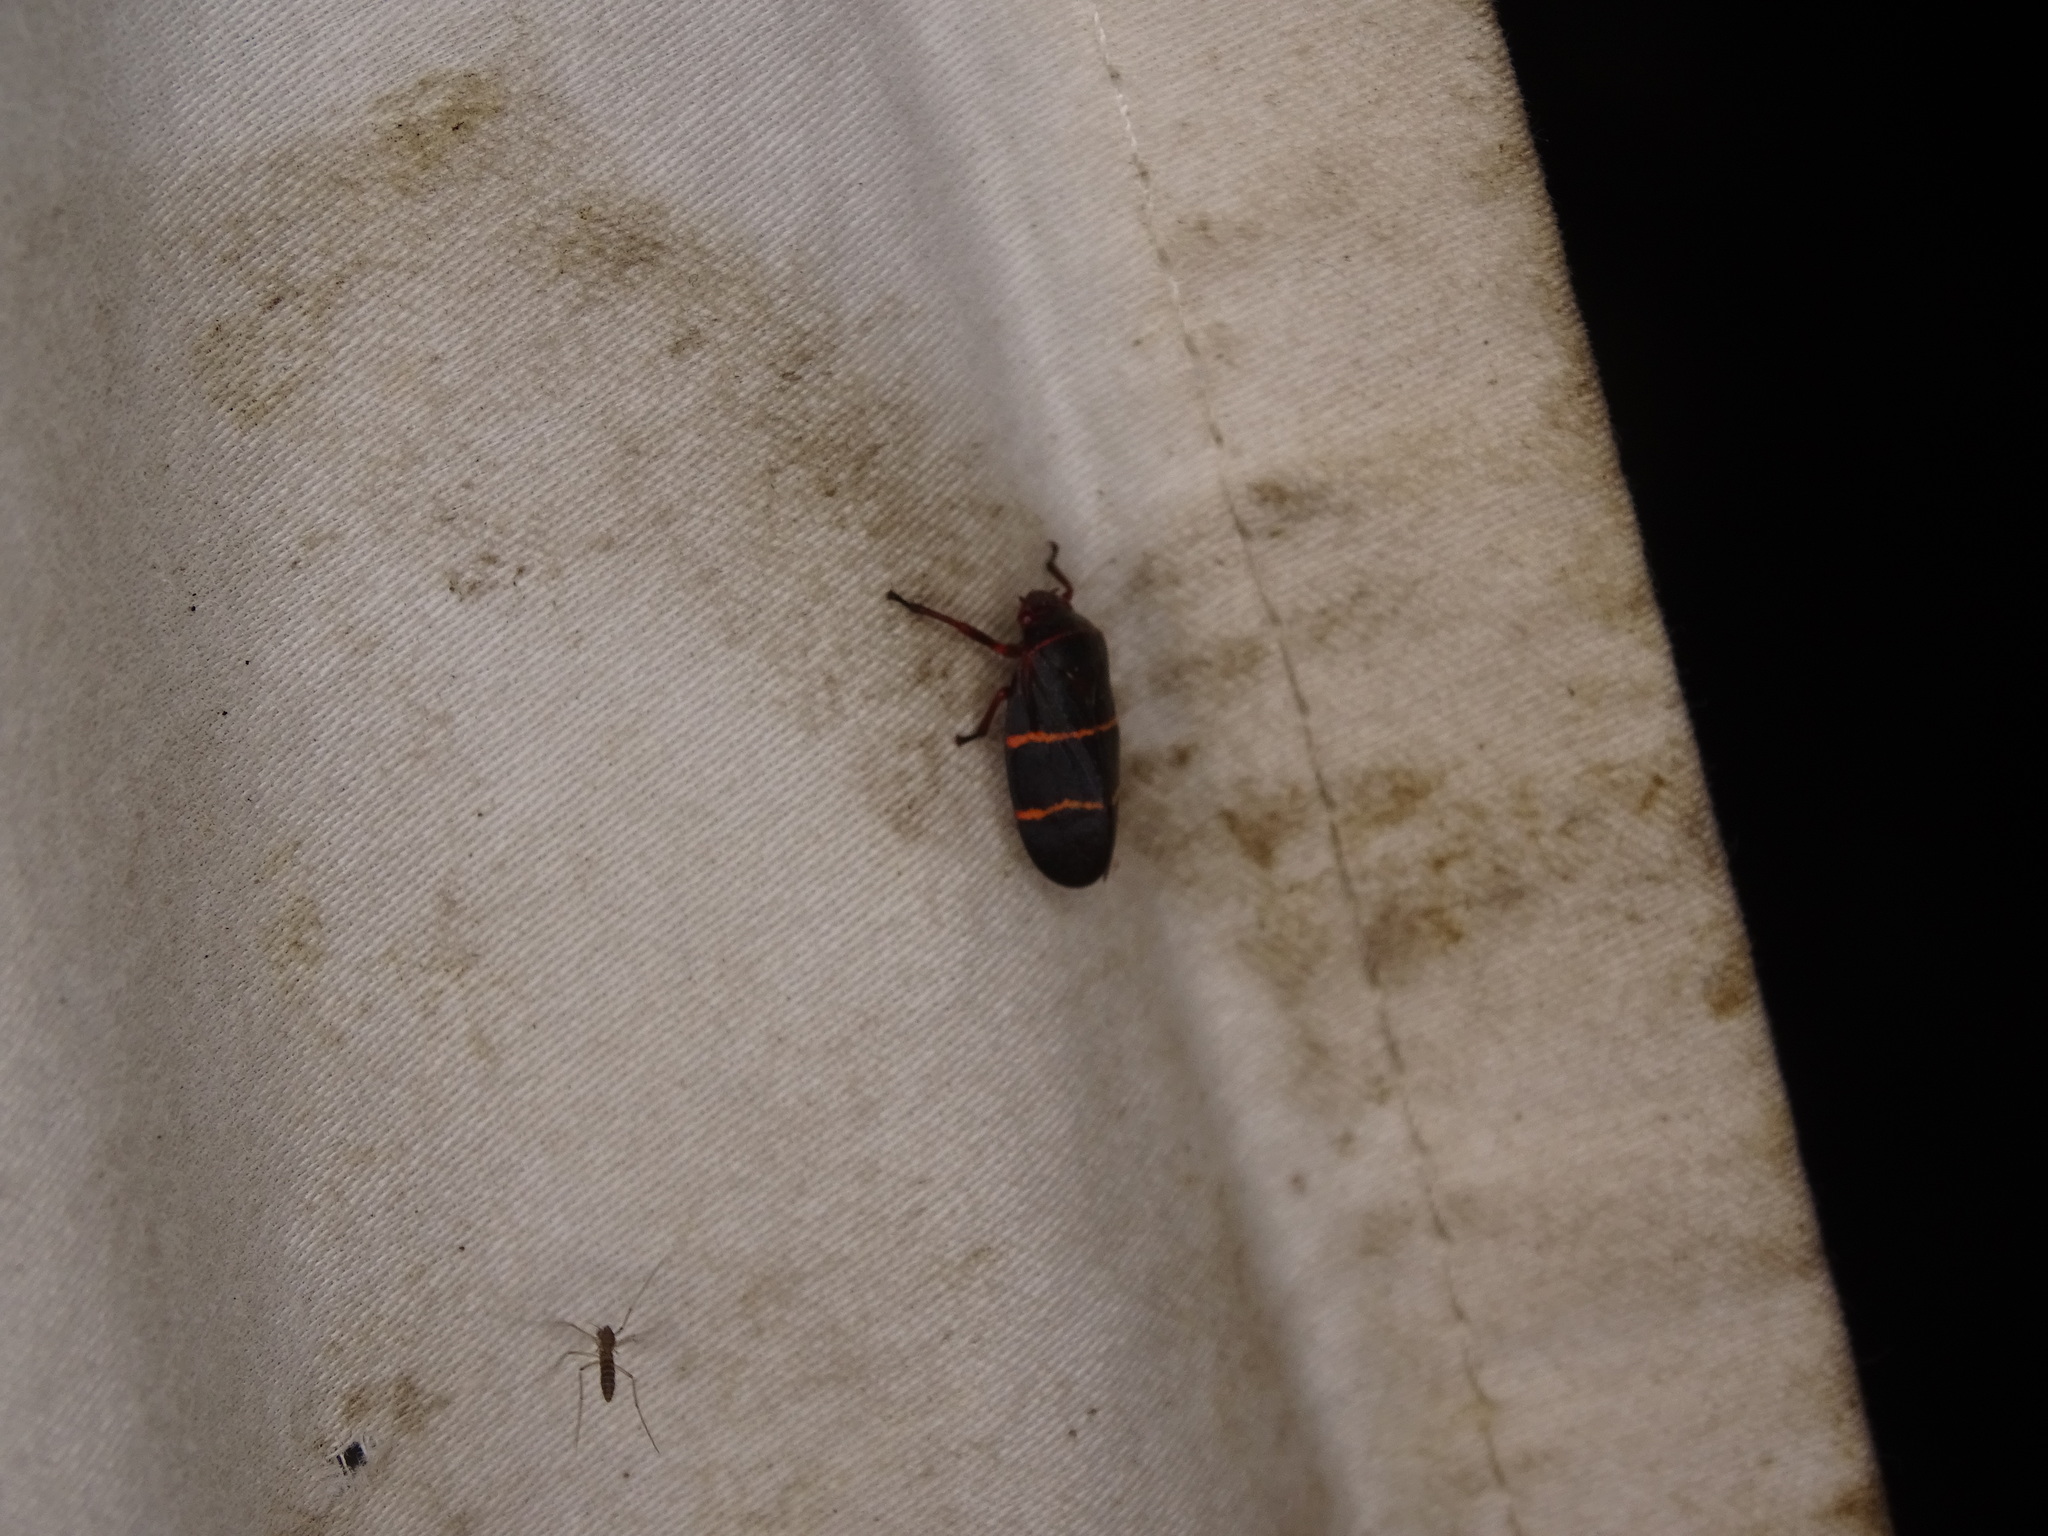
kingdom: Animalia
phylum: Arthropoda
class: Insecta
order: Hemiptera
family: Cercopidae
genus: Prosapia
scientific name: Prosapia bicincta
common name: Twolined spittlebug
